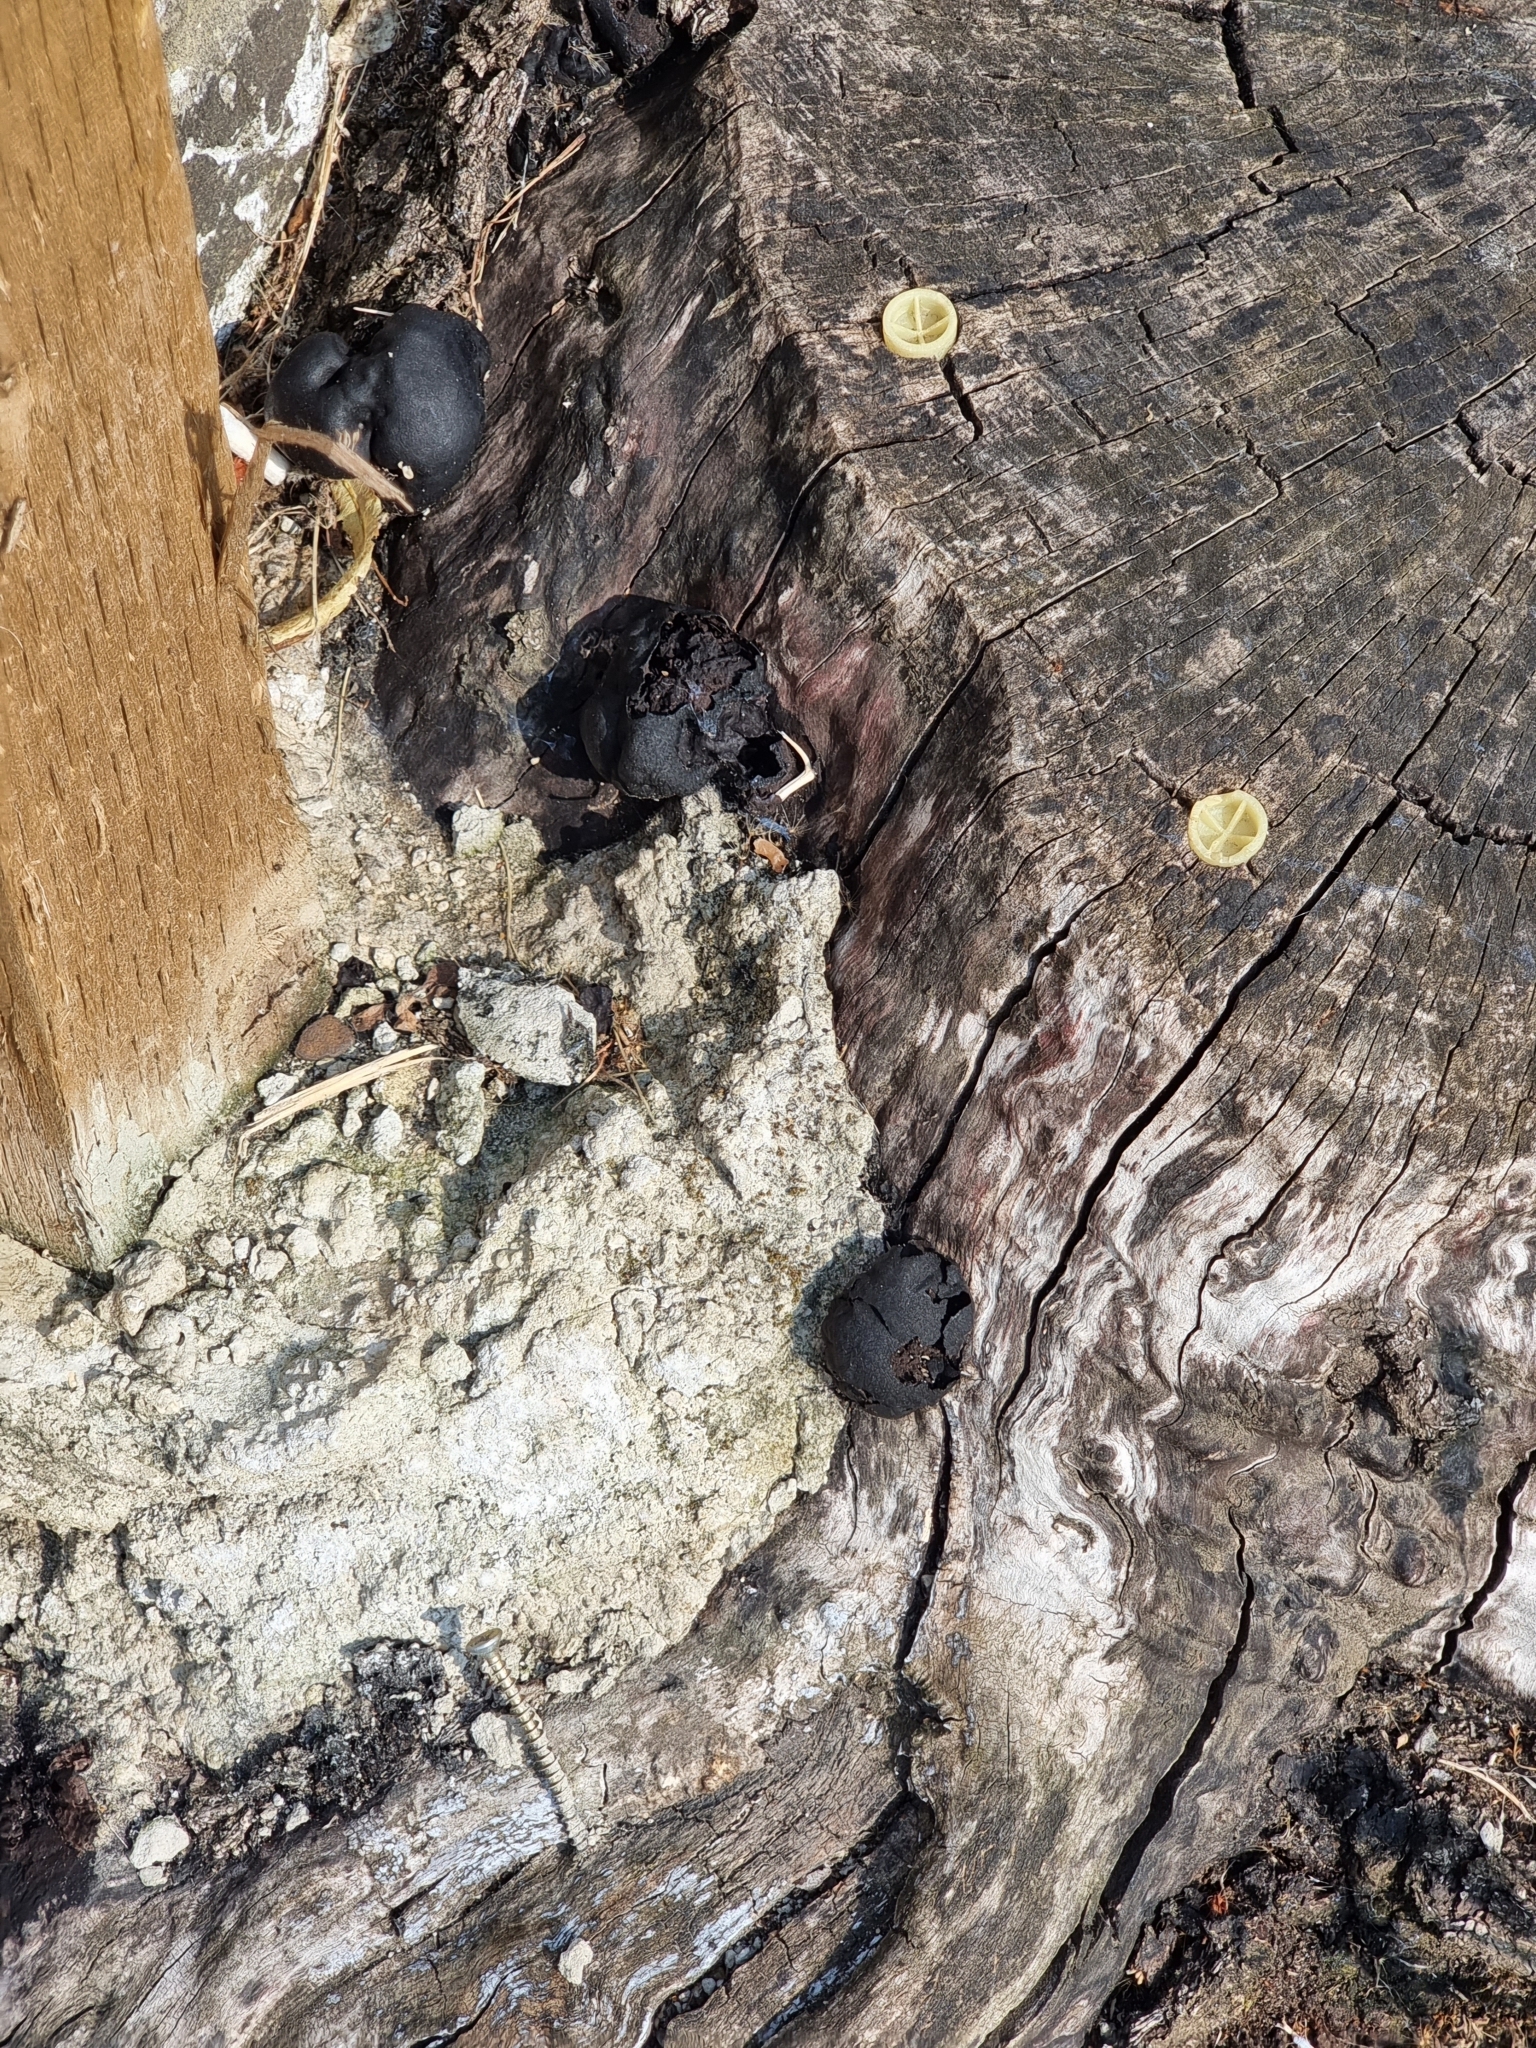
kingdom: Fungi
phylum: Ascomycota
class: Sordariomycetes
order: Xylariales
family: Hypoxylaceae
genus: Daldinia
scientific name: Daldinia concentrica
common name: Cramp balls
